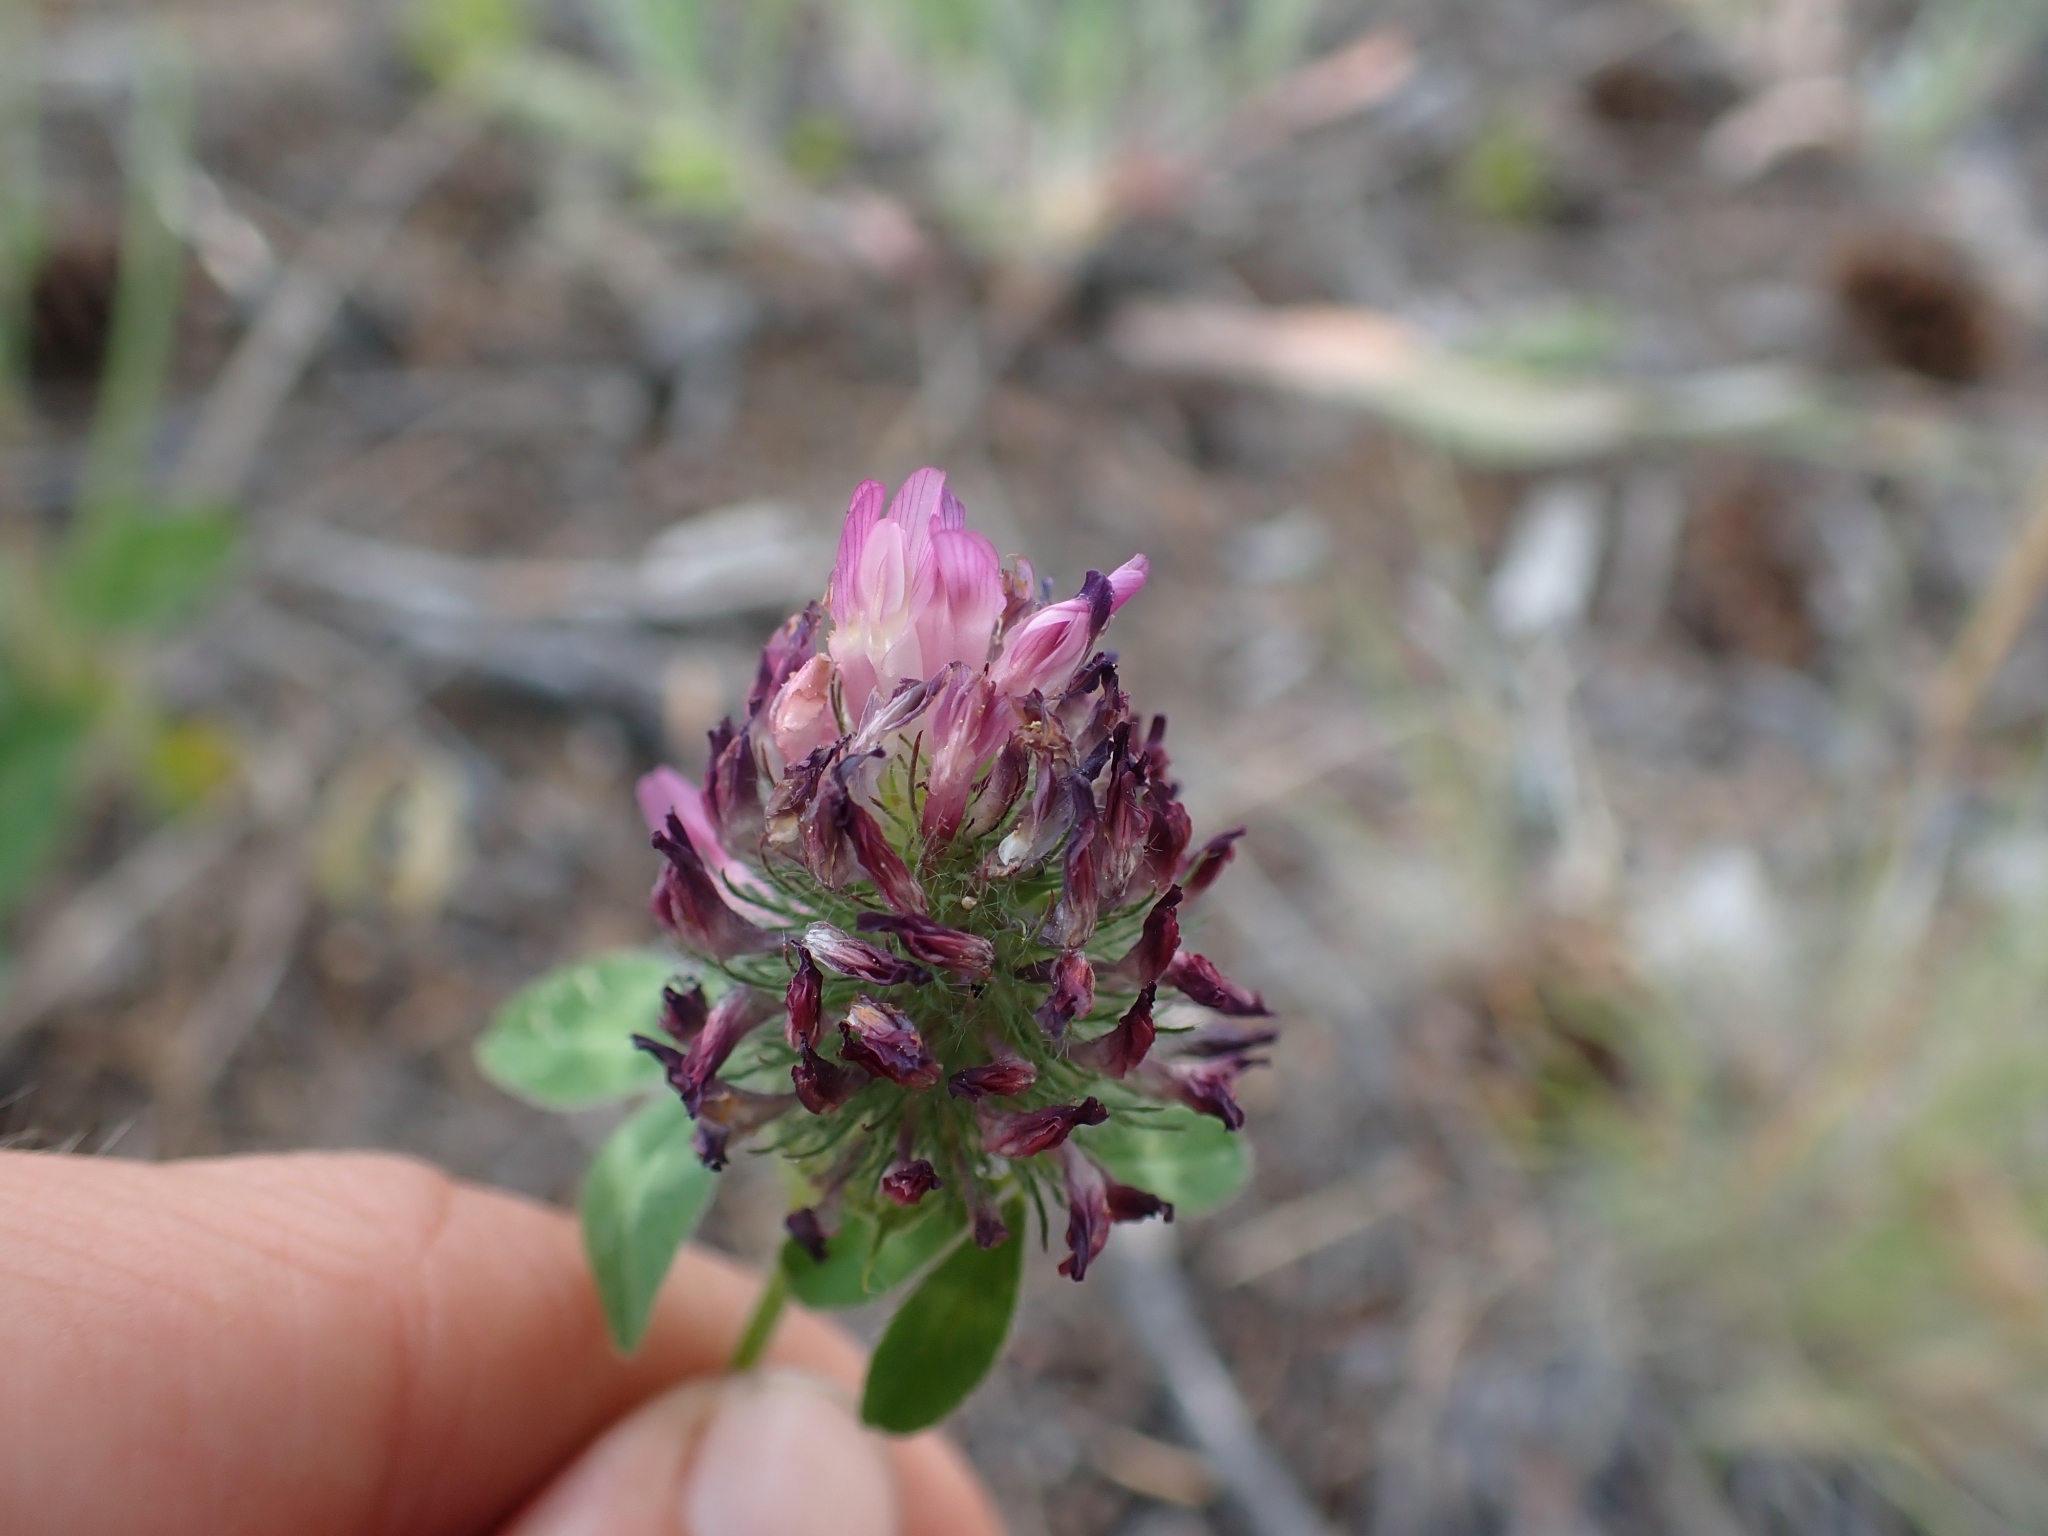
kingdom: Plantae
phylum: Tracheophyta
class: Magnoliopsida
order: Fabales
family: Fabaceae
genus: Trifolium
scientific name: Trifolium pratense
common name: Red clover
